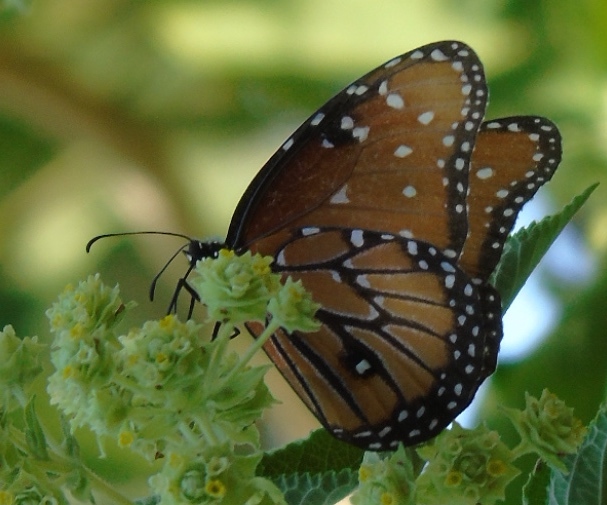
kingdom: Animalia
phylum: Arthropoda
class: Insecta
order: Lepidoptera
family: Nymphalidae
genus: Danaus
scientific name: Danaus gilippus
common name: Queen
